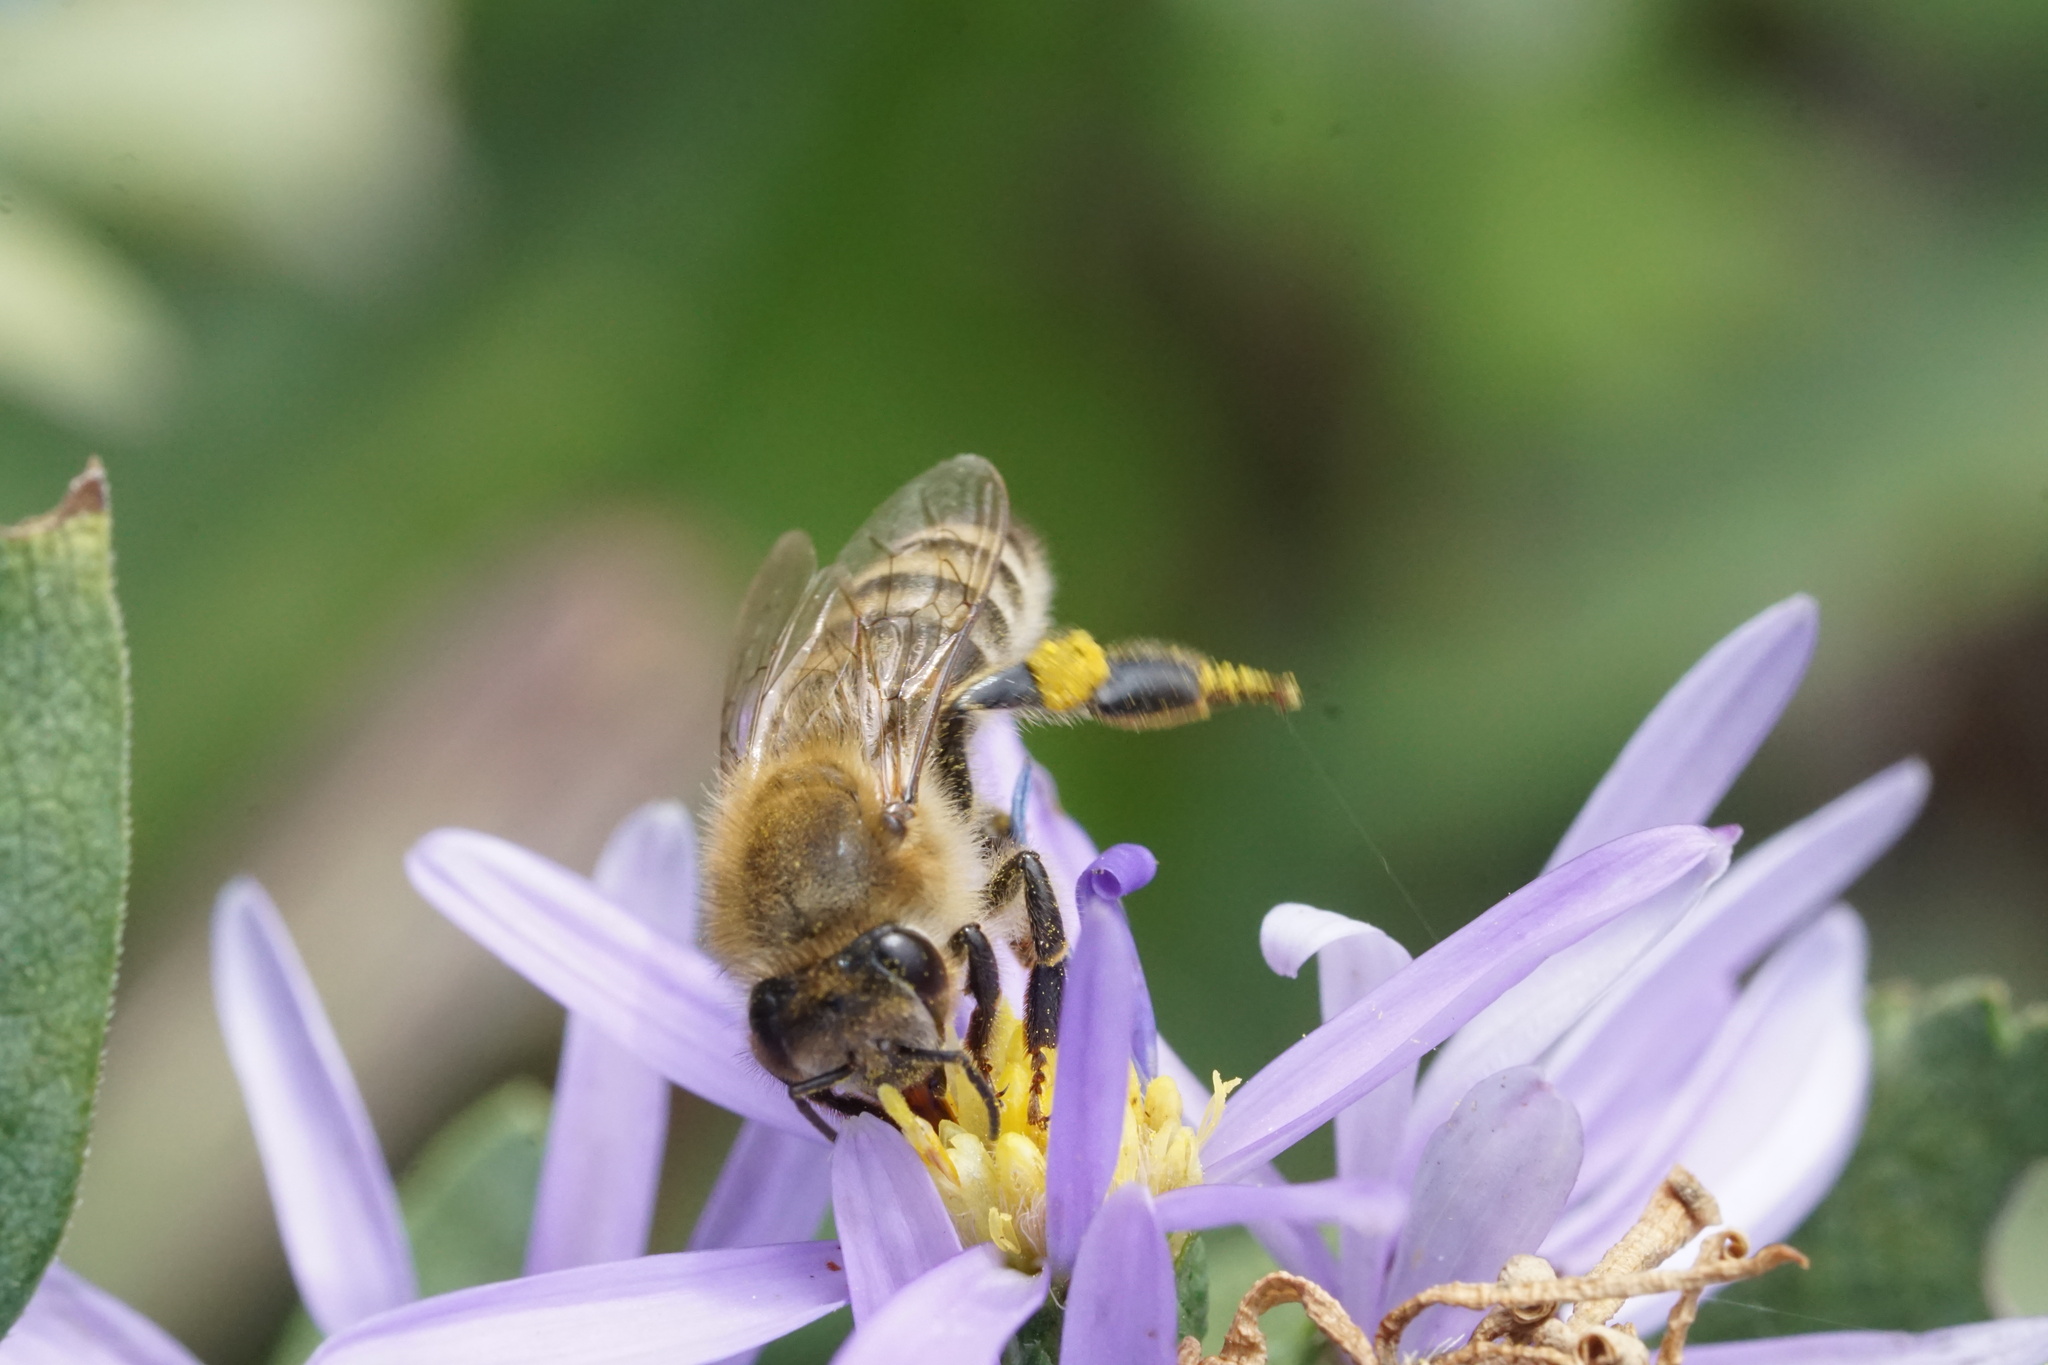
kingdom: Animalia
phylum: Arthropoda
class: Insecta
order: Hymenoptera
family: Apidae
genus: Apis
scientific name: Apis mellifera
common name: Honey bee
